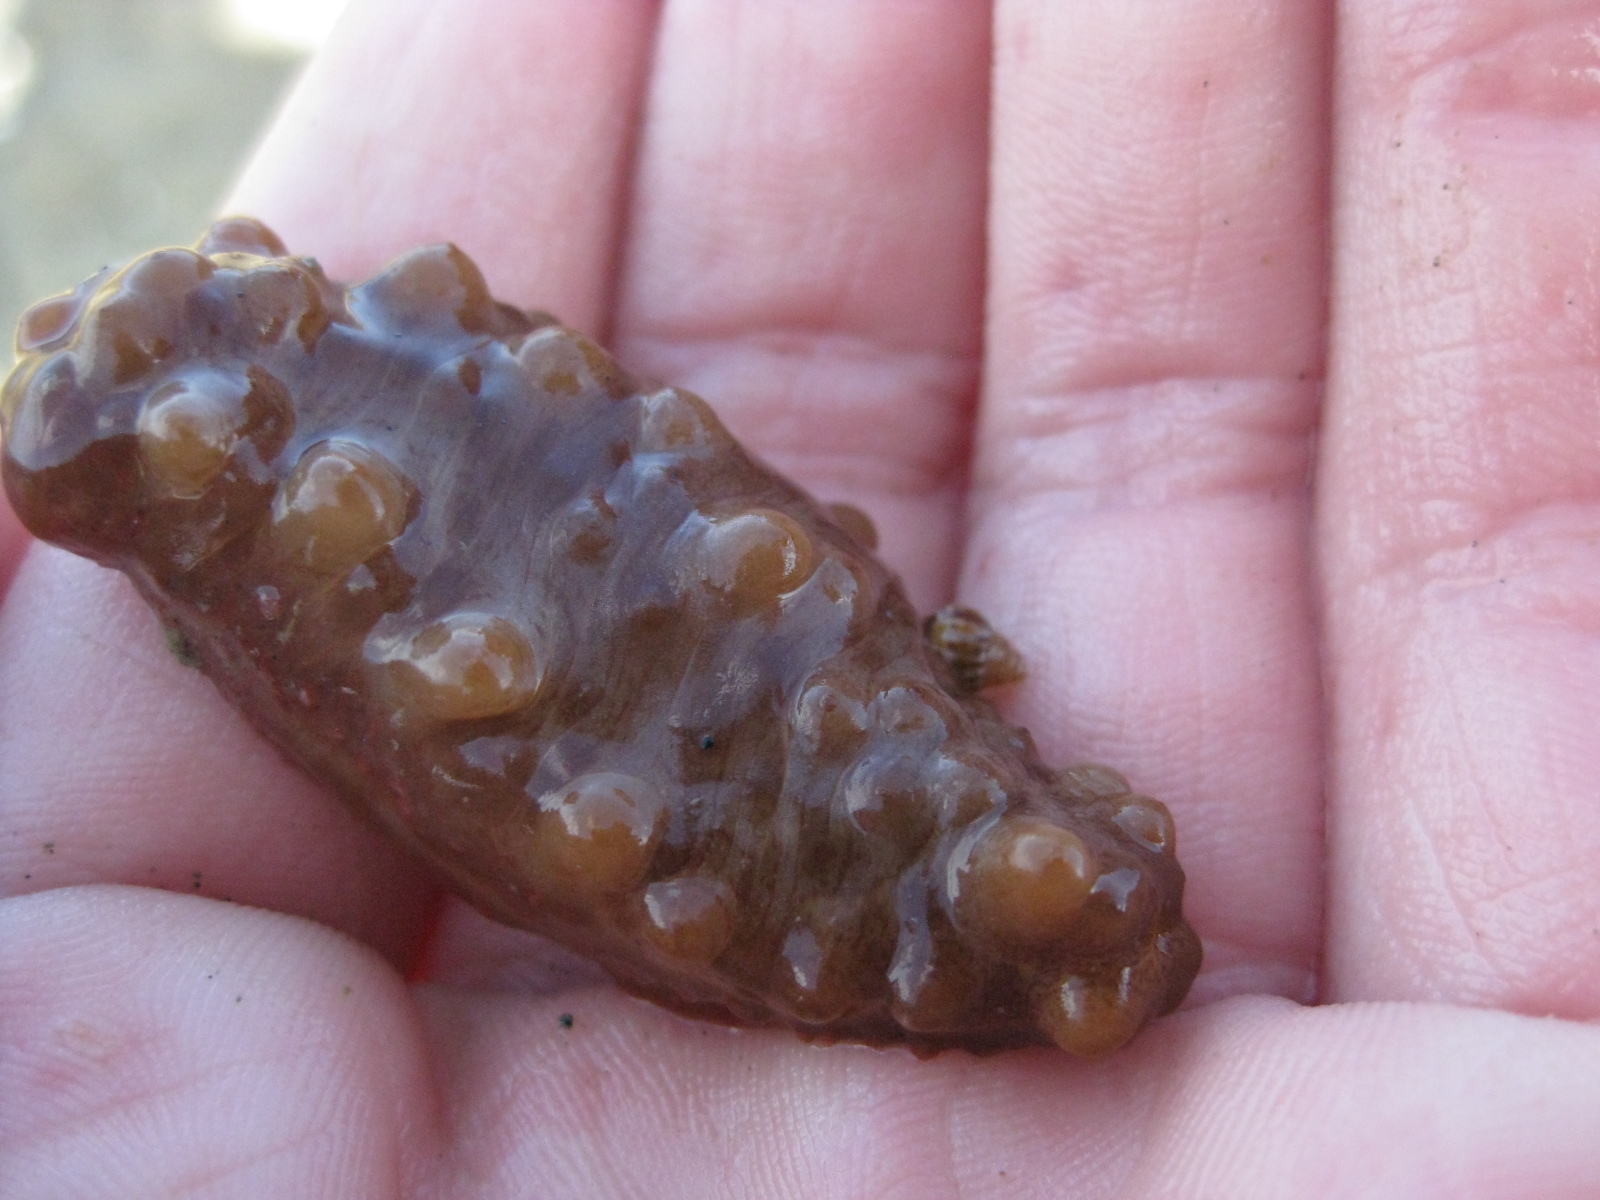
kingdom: Animalia
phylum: Echinodermata
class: Holothuroidea
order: Synallactida
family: Stichopodidae
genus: Australostichopus
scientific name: Australostichopus mollis
